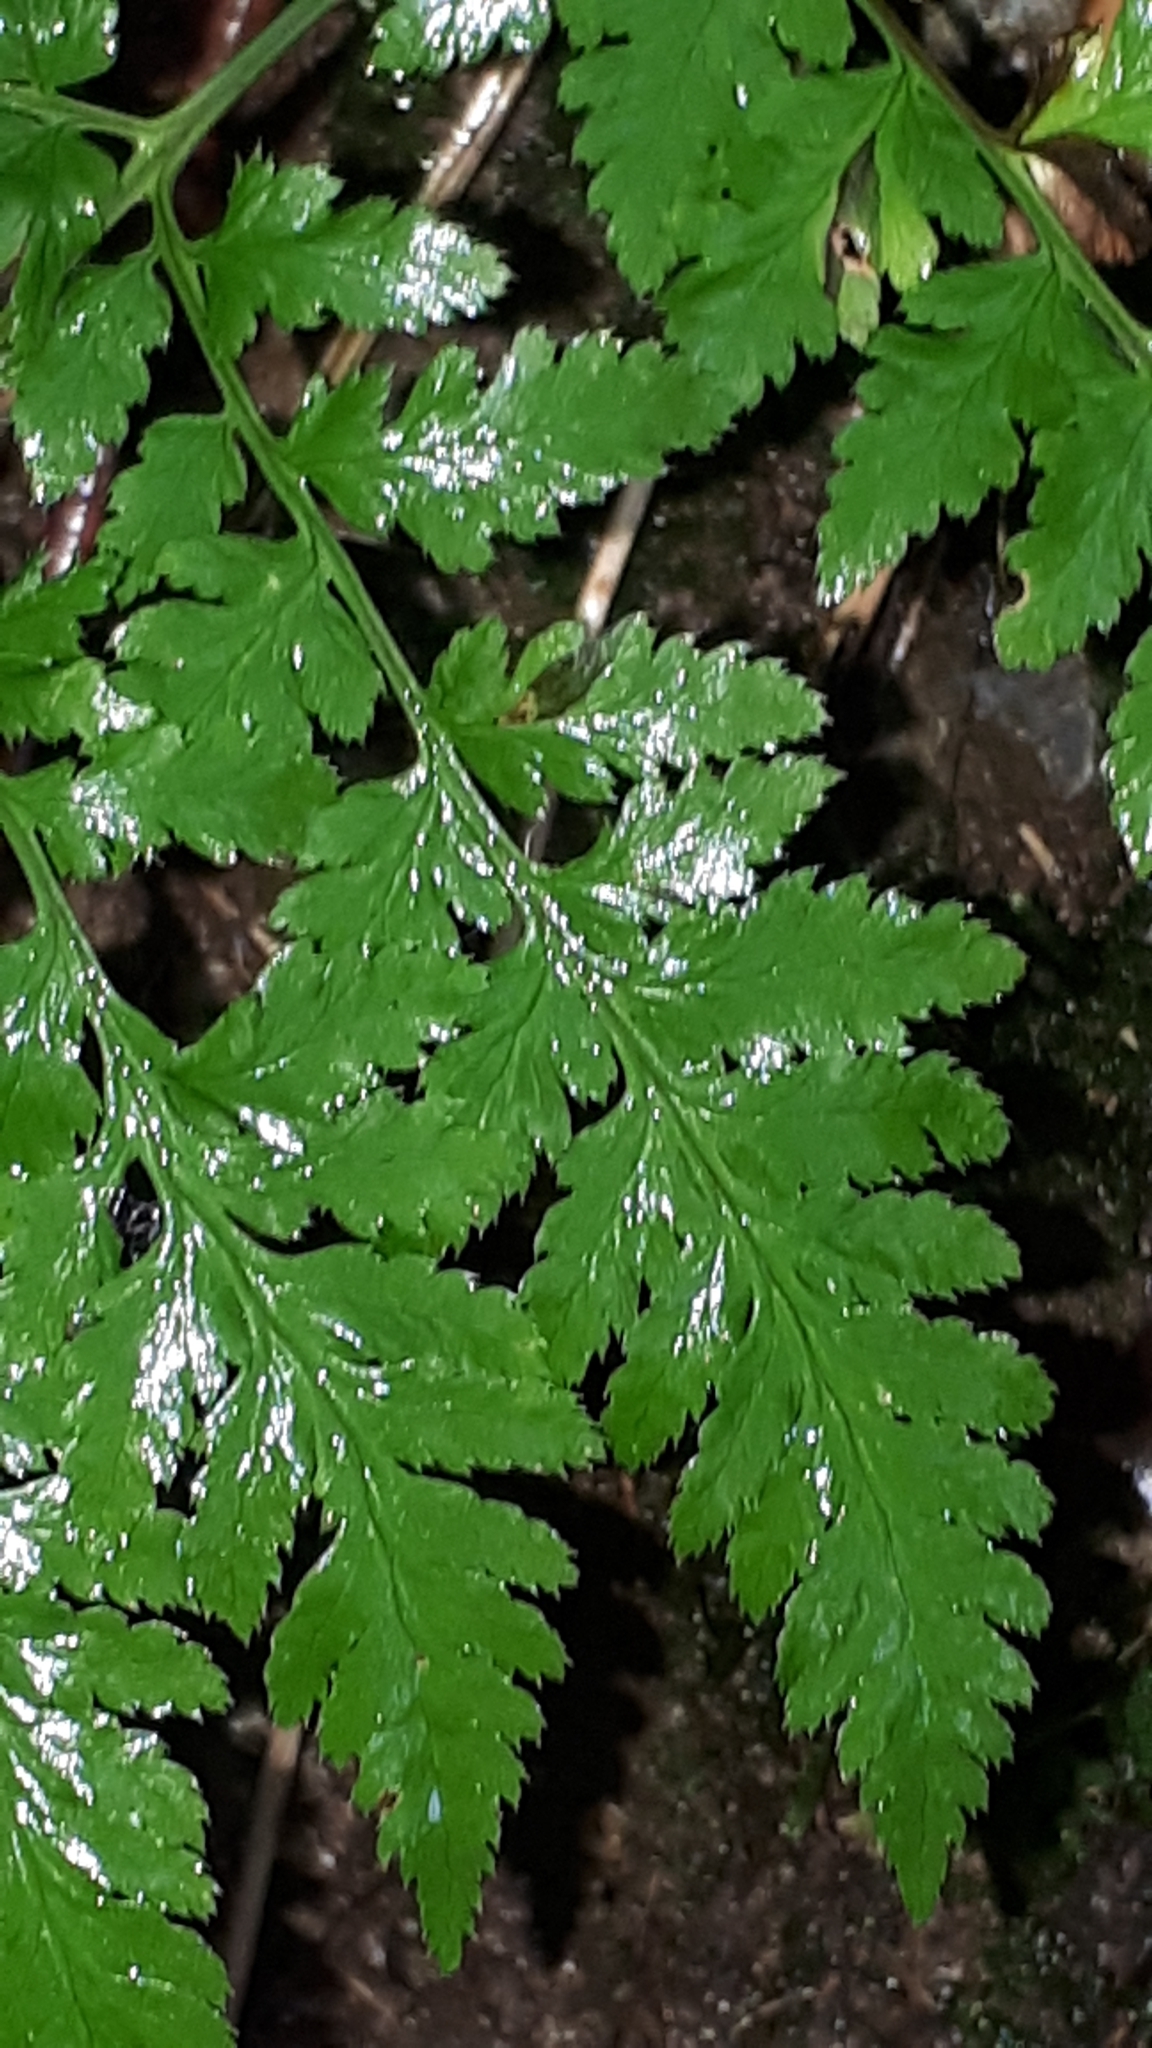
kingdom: Plantae
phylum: Tracheophyta
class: Polypodiopsida
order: Polypodiales
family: Cystopteridaceae
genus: Cystopteris
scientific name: Cystopteris montana
